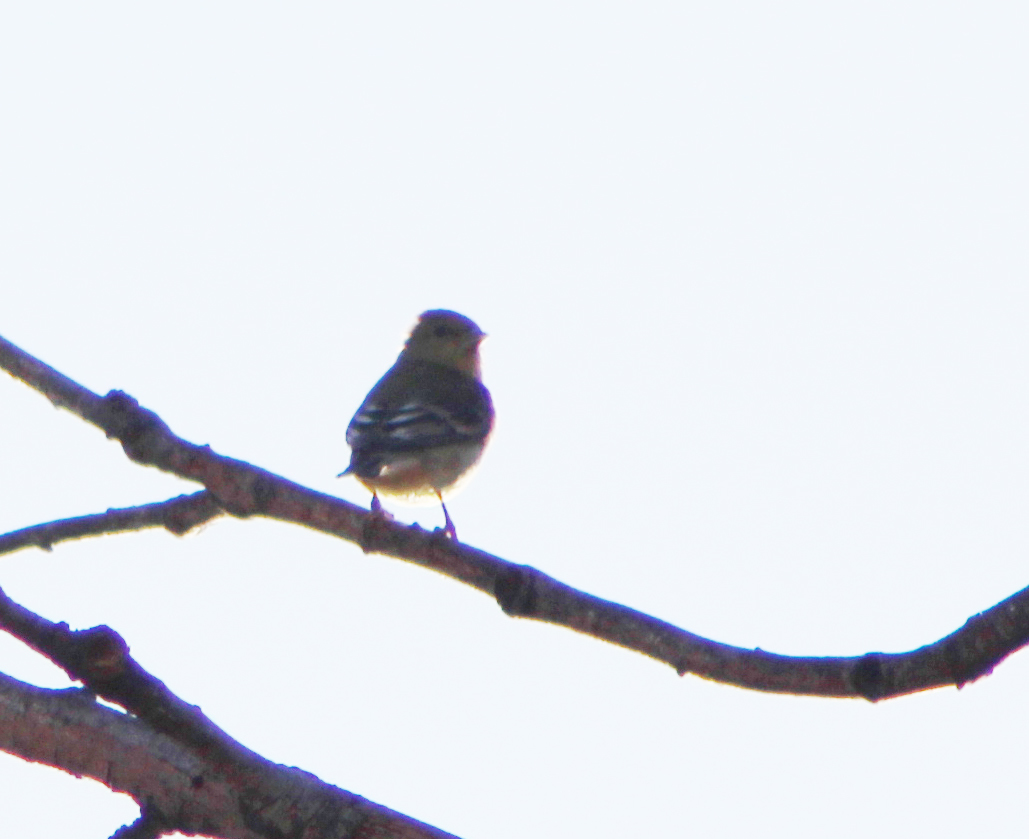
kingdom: Animalia
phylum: Chordata
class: Aves
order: Passeriformes
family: Fringillidae
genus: Spinus
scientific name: Spinus psaltria
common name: Lesser goldfinch
